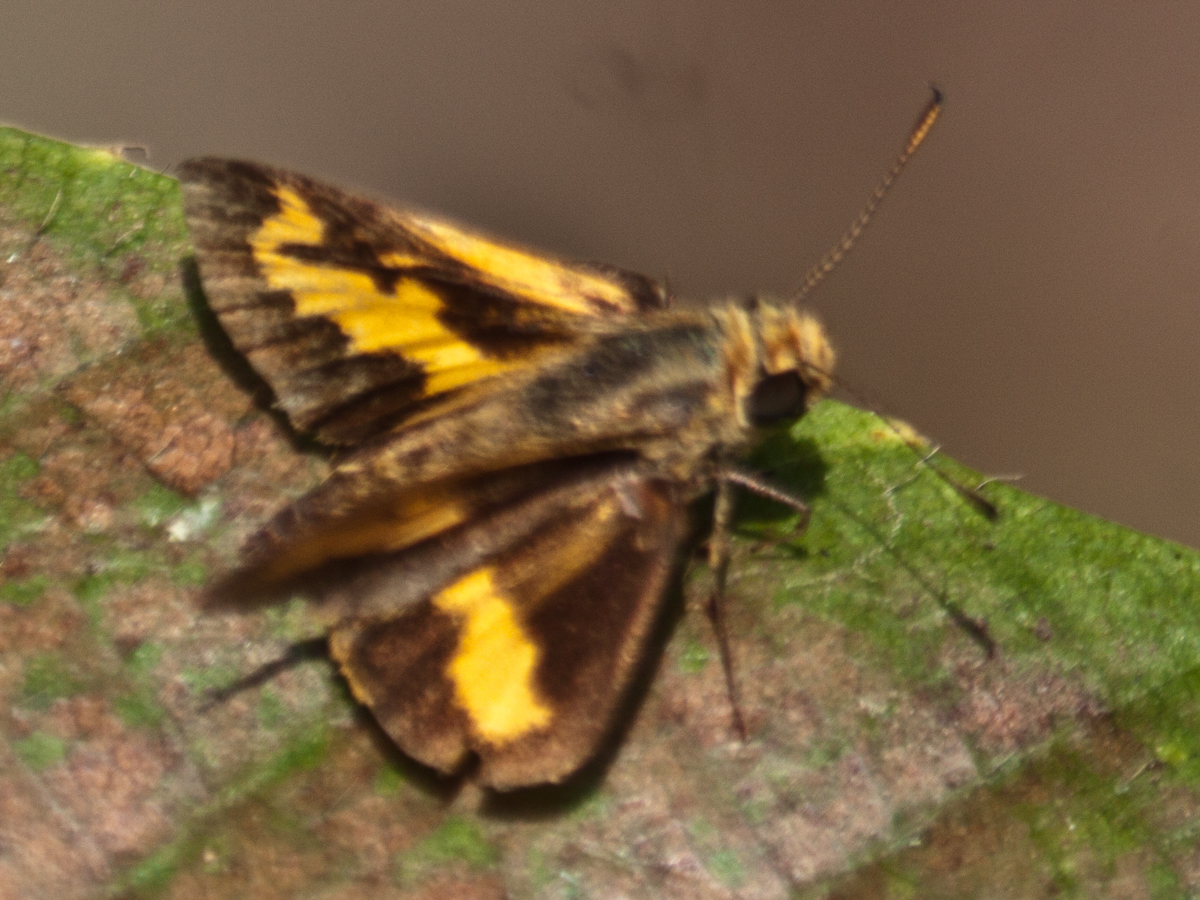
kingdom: Animalia
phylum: Arthropoda
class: Insecta
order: Lepidoptera
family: Hesperiidae
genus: Oriens
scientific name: Oriens gola
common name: Common dartlet
